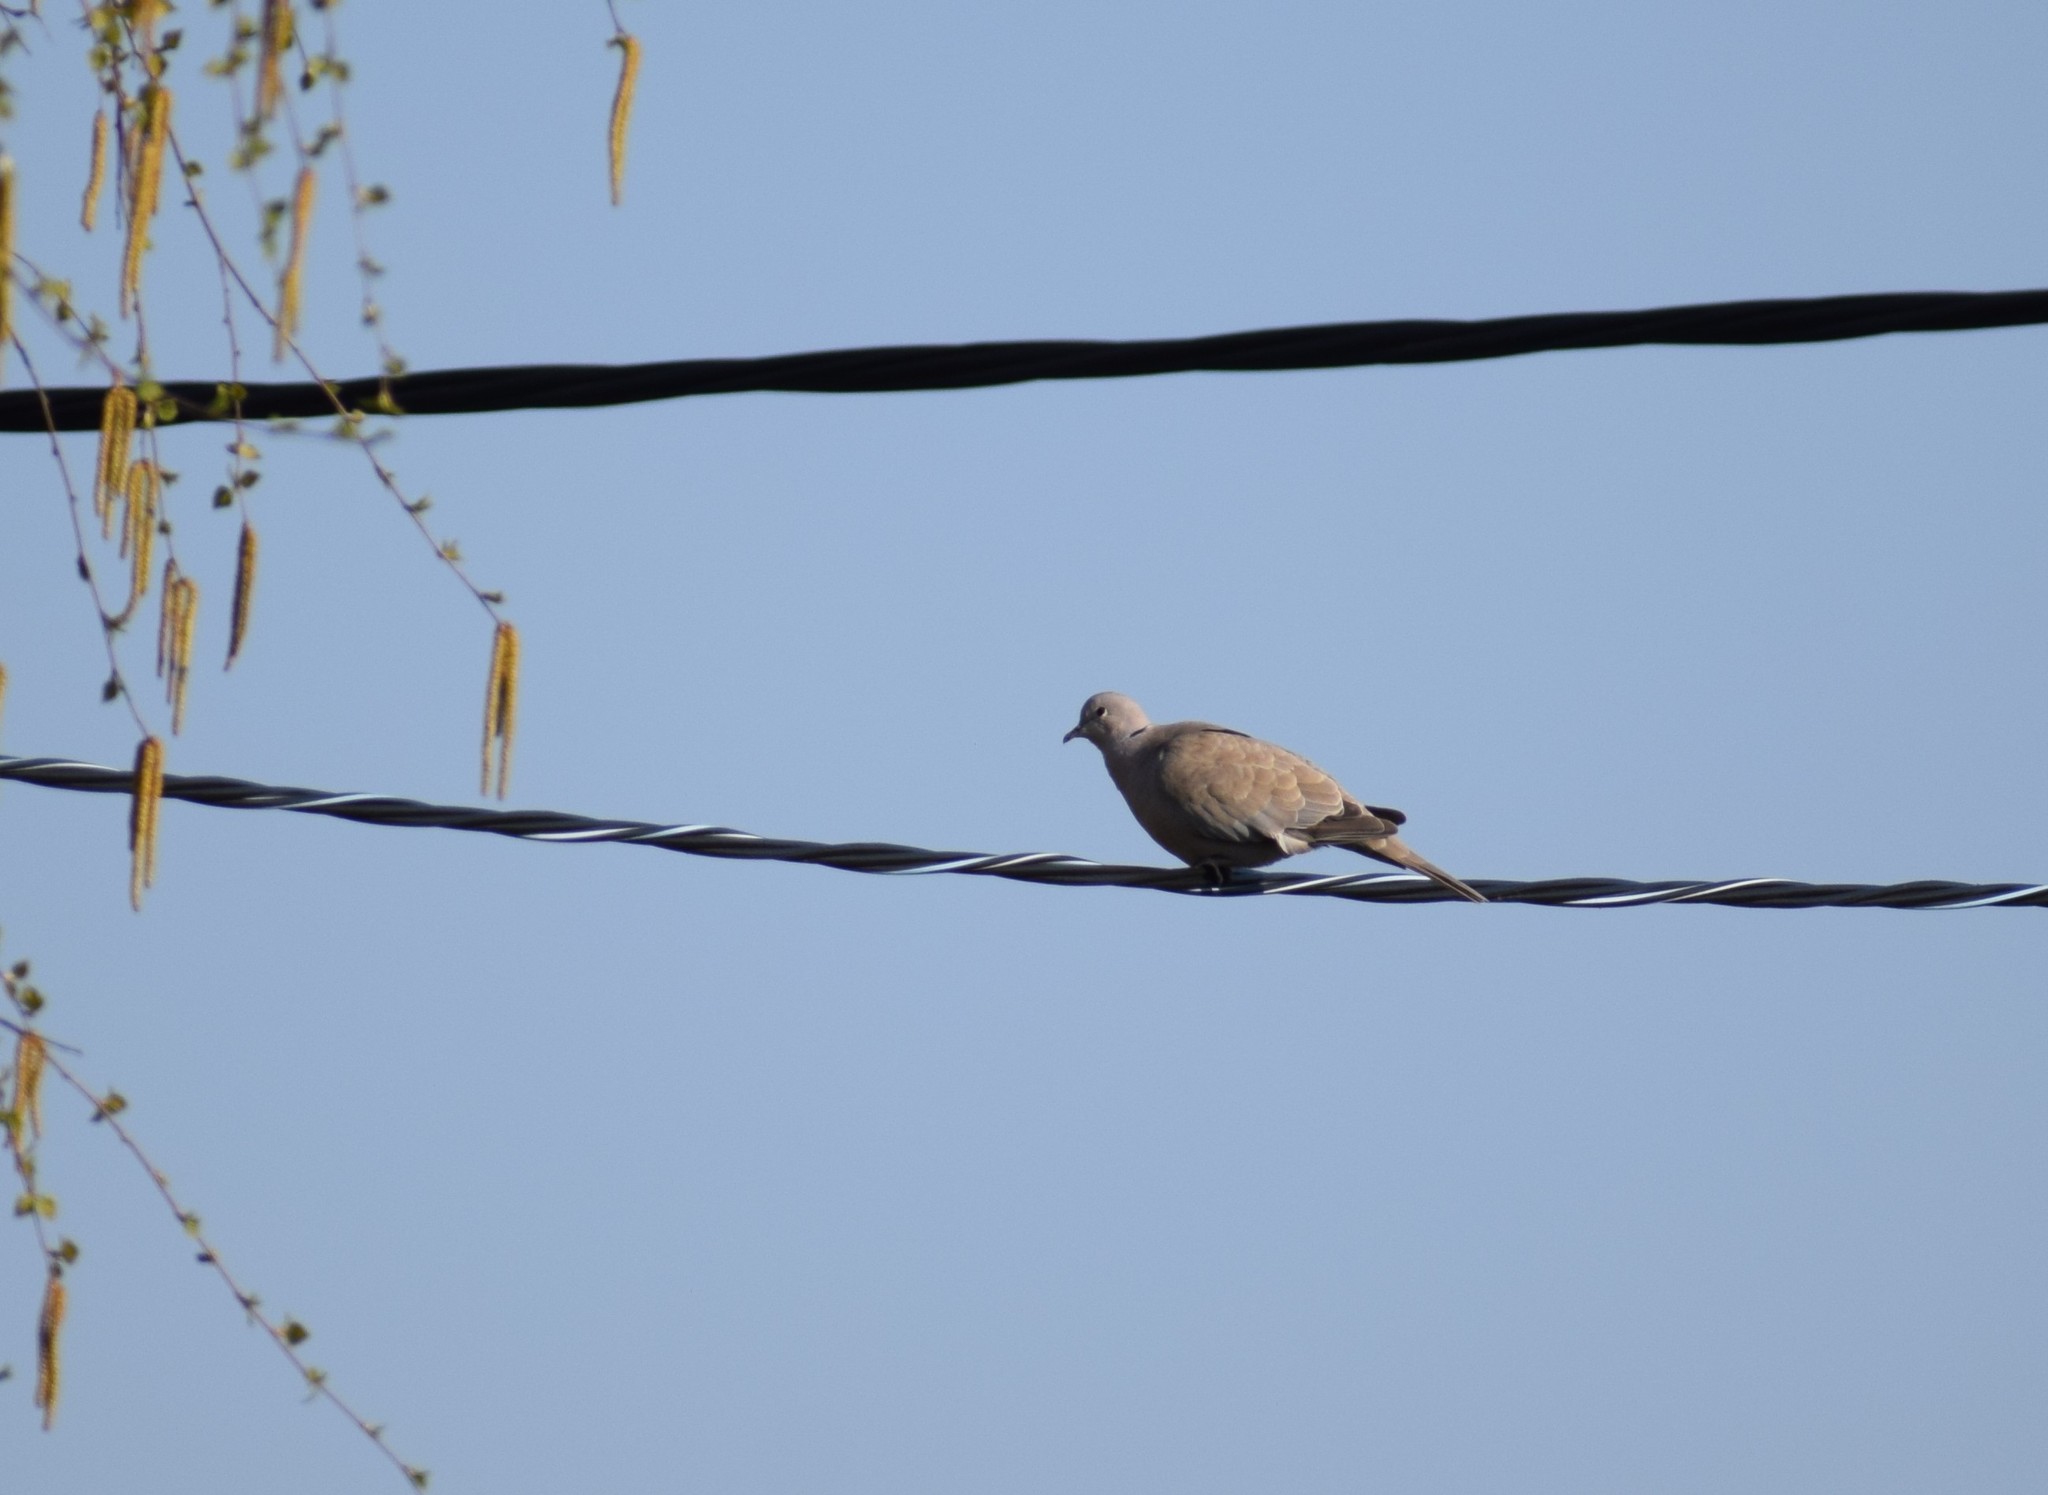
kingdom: Animalia
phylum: Chordata
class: Aves
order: Columbiformes
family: Columbidae
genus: Streptopelia
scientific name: Streptopelia decaocto
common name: Eurasian collared dove
